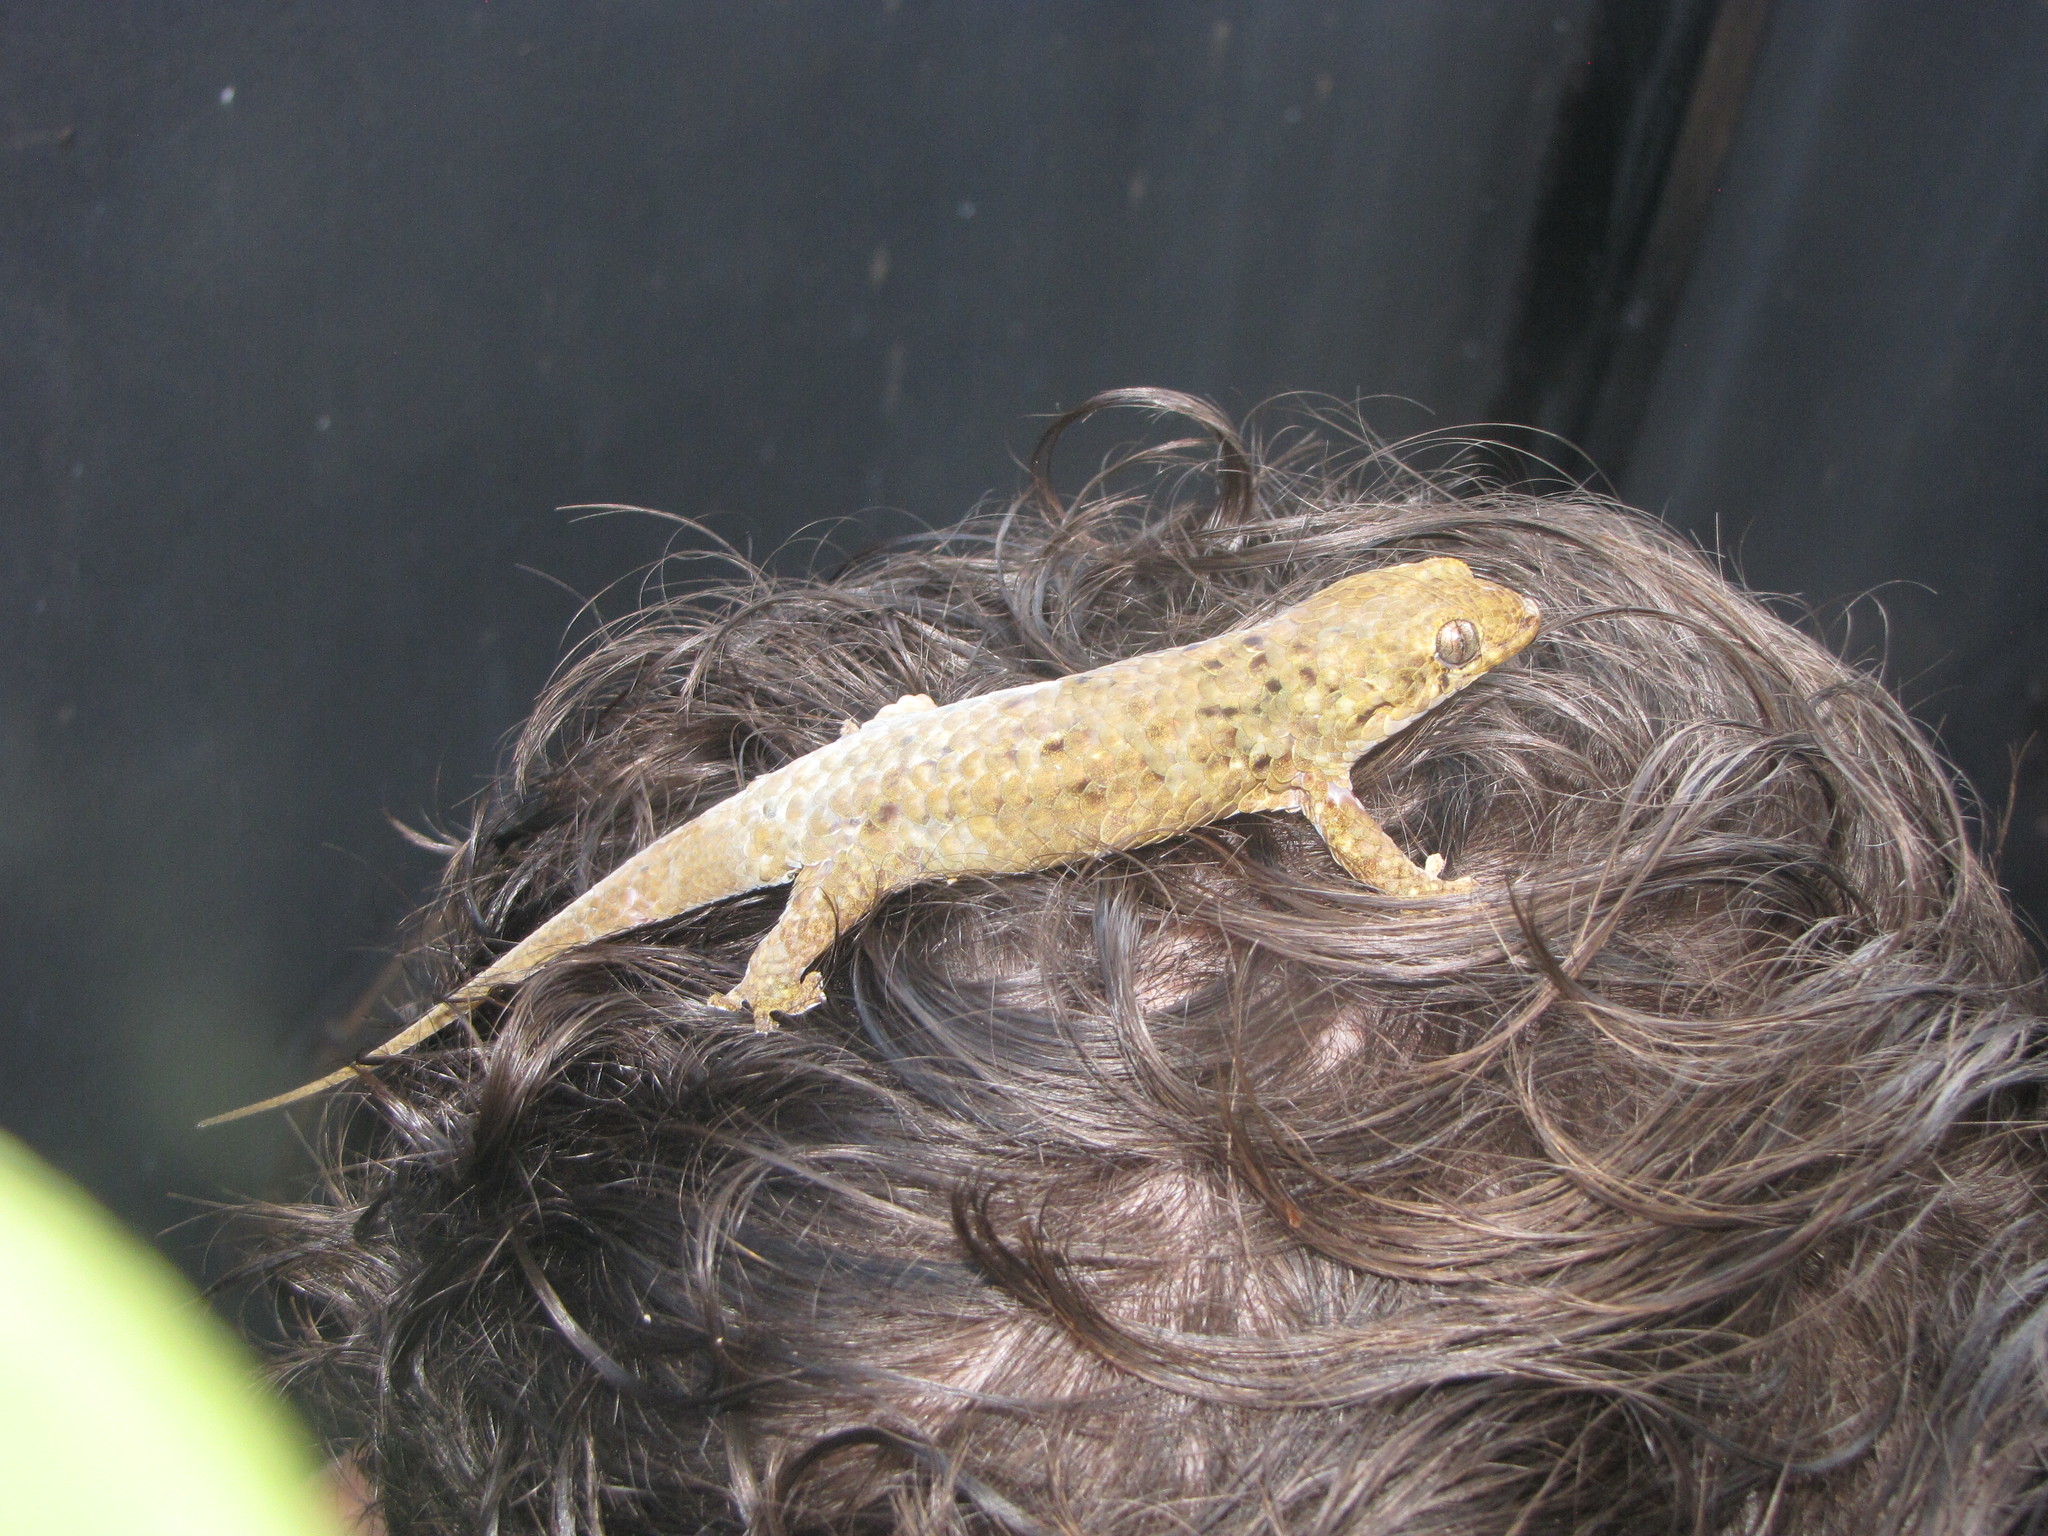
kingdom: Animalia
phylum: Chordata
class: Squamata
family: Gekkonidae
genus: Geckolepis
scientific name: Geckolepis maculata
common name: Peters' spotted gecko
